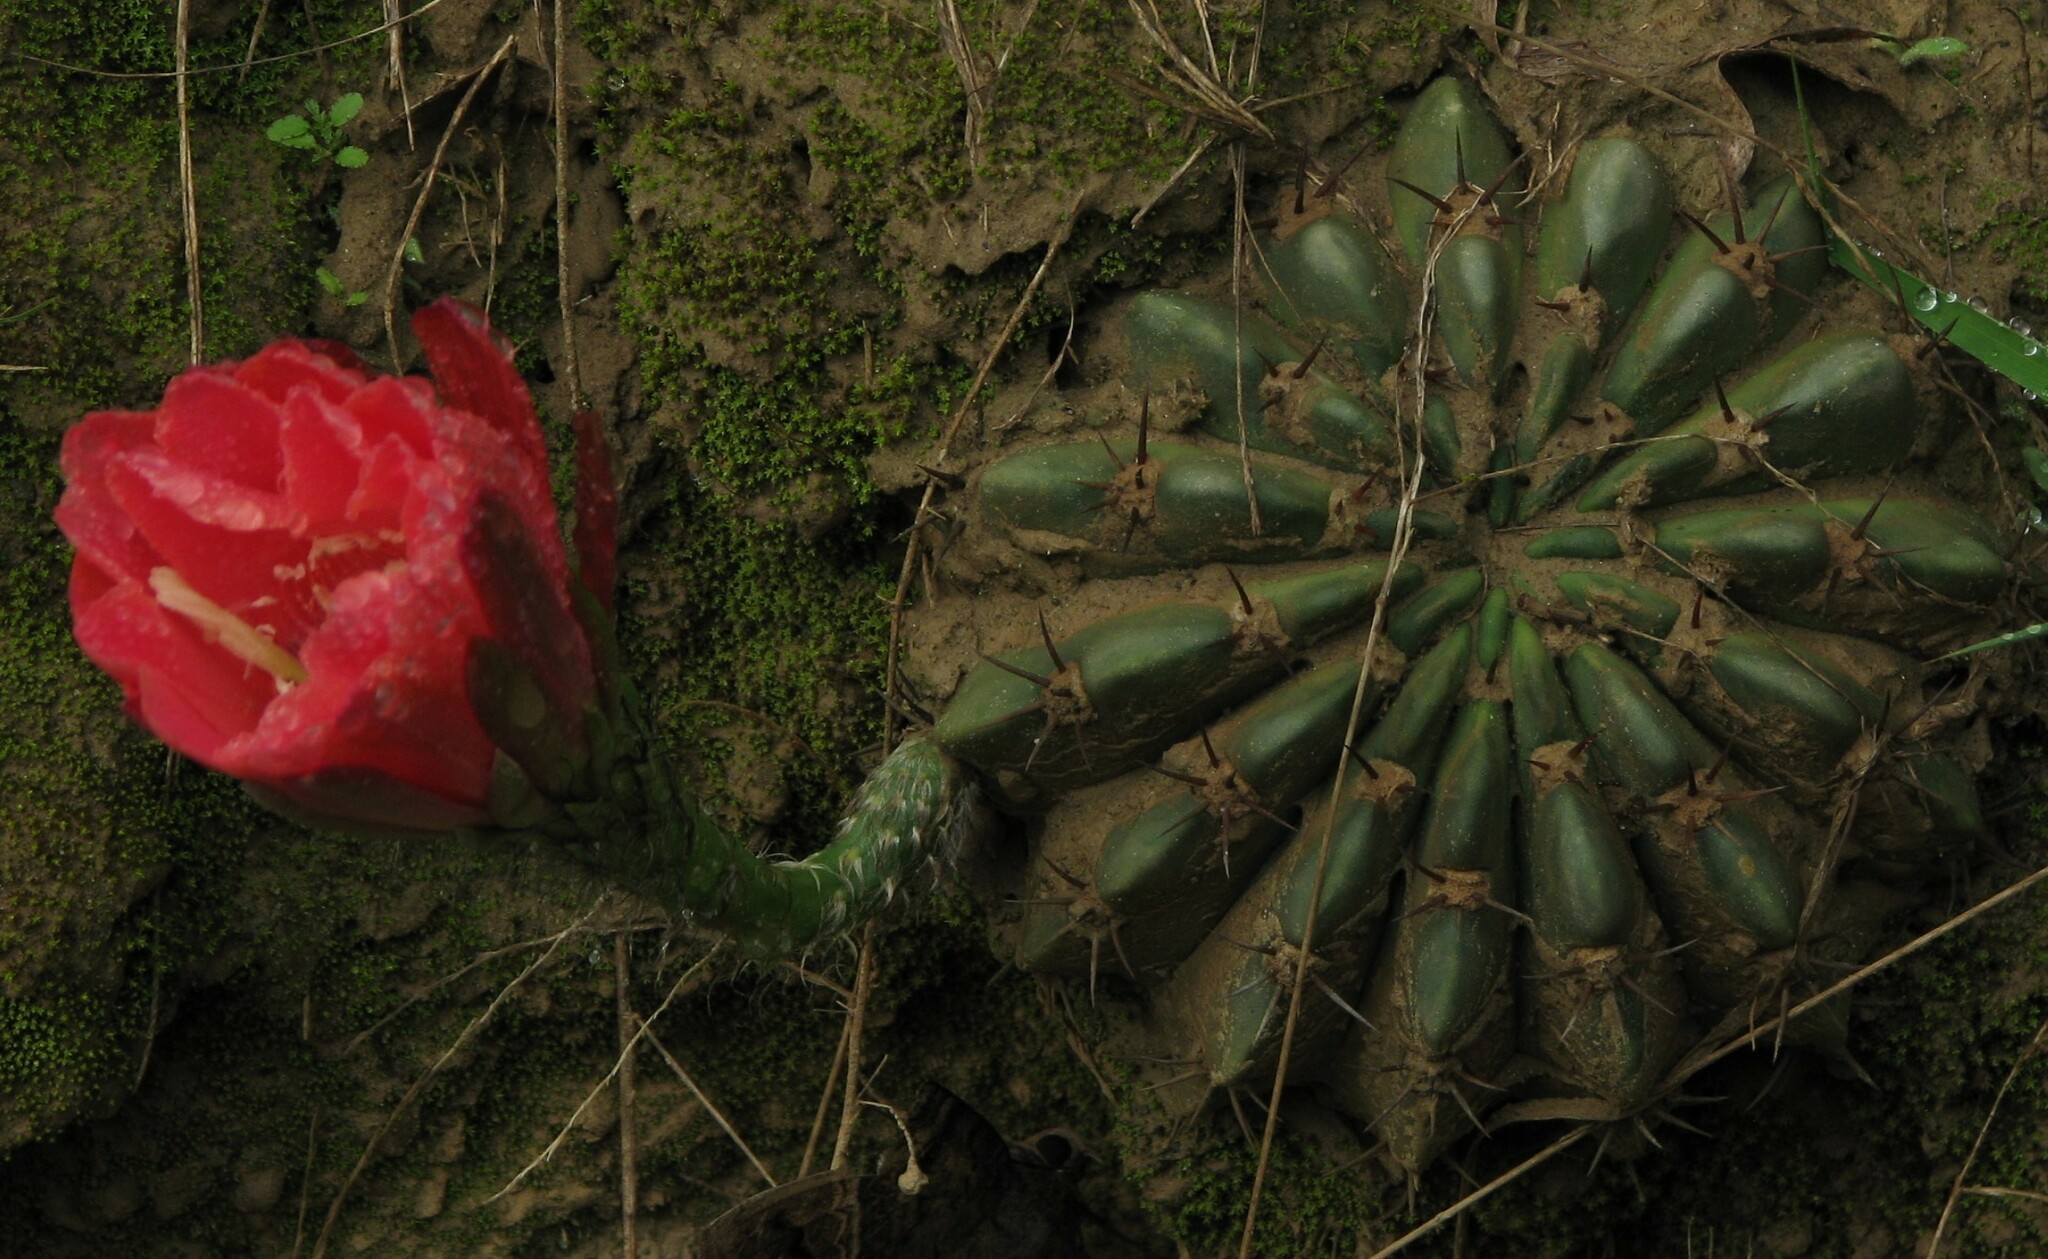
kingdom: Plantae
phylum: Tracheophyta
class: Magnoliopsida
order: Caryophyllales
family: Cactaceae
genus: Lobivia
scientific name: Lobivia calorubra
